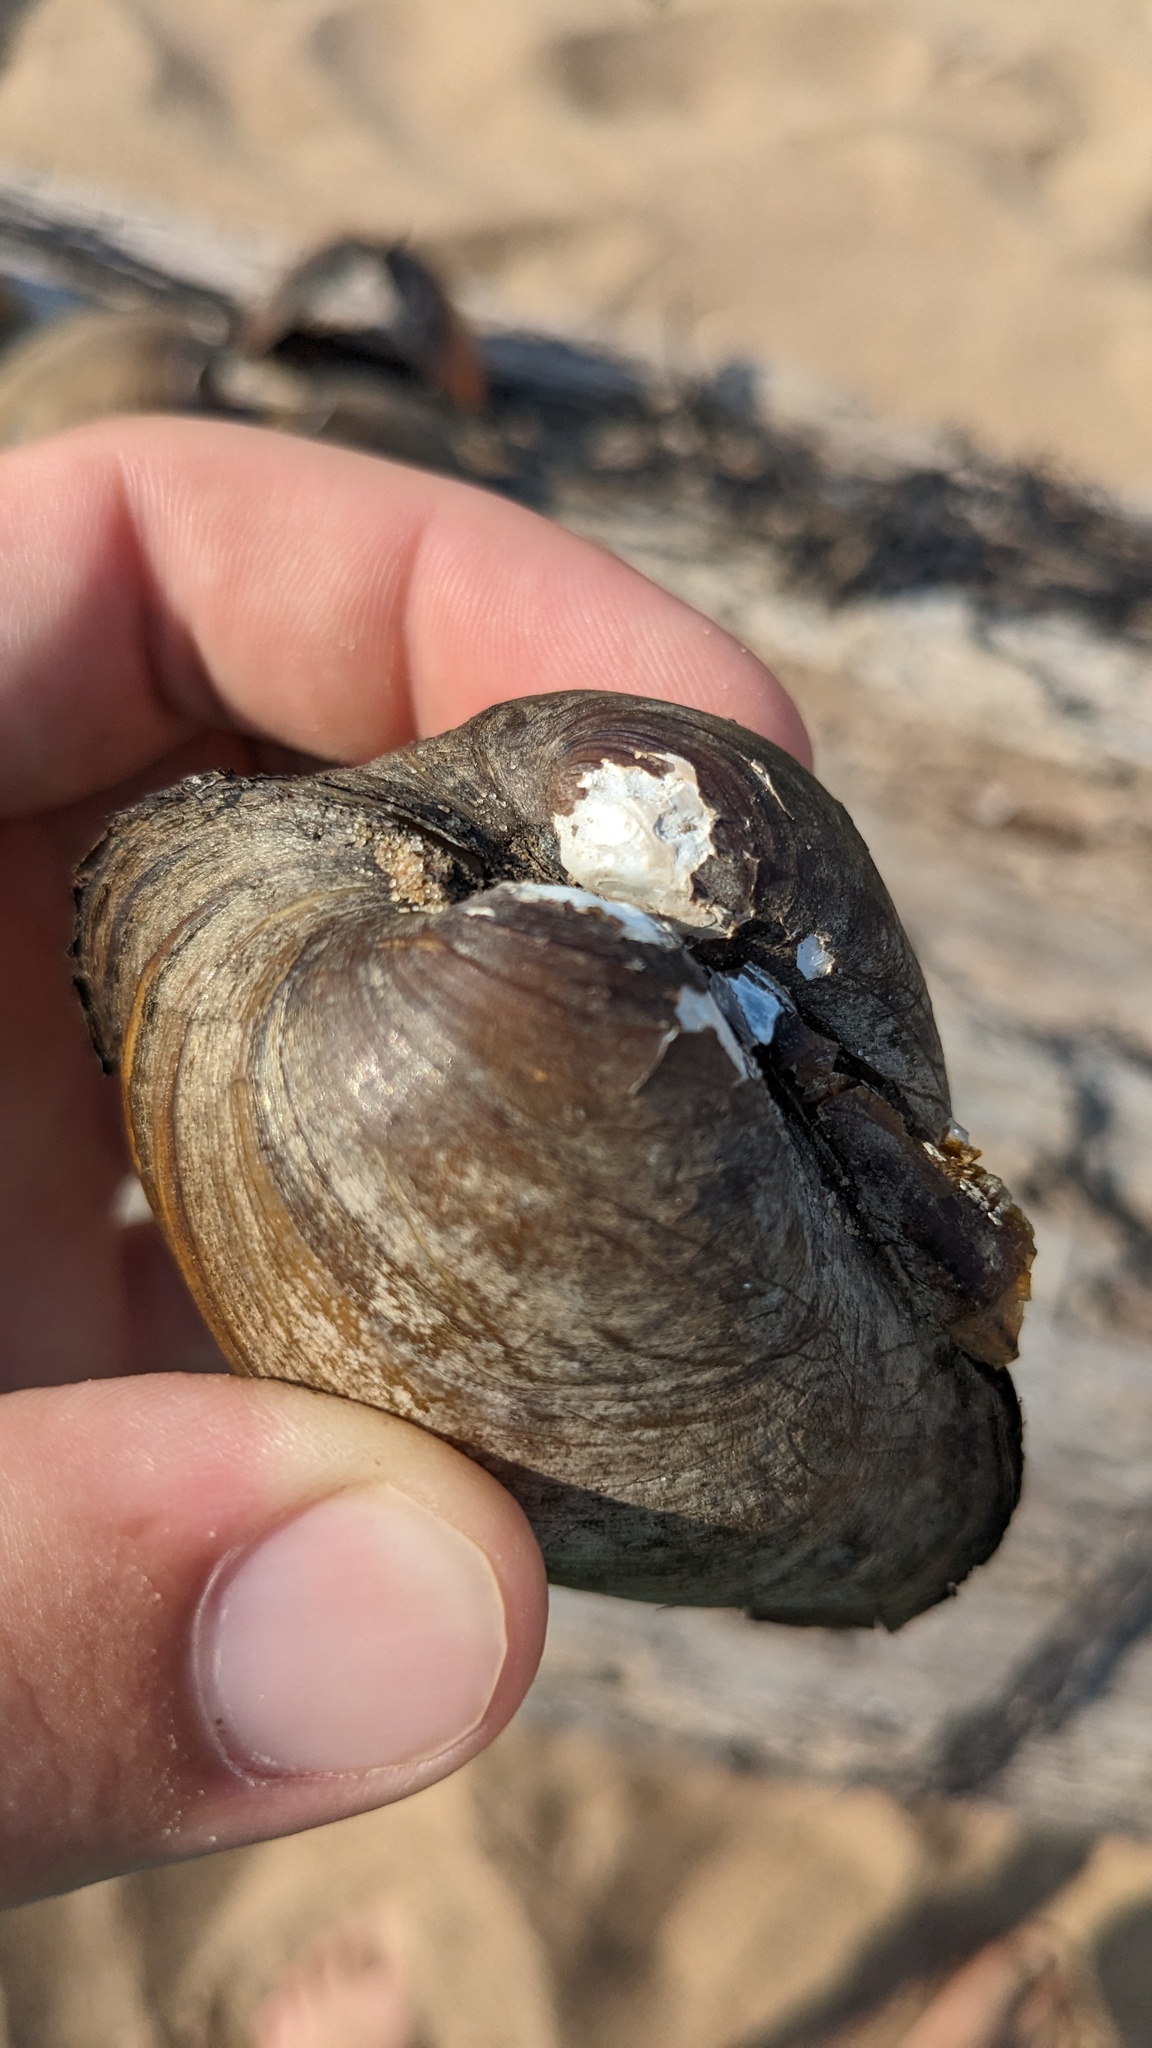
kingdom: Animalia
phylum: Mollusca
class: Bivalvia
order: Unionida
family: Unionidae
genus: Obovaria
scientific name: Obovaria olivaria
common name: Hickorynut
